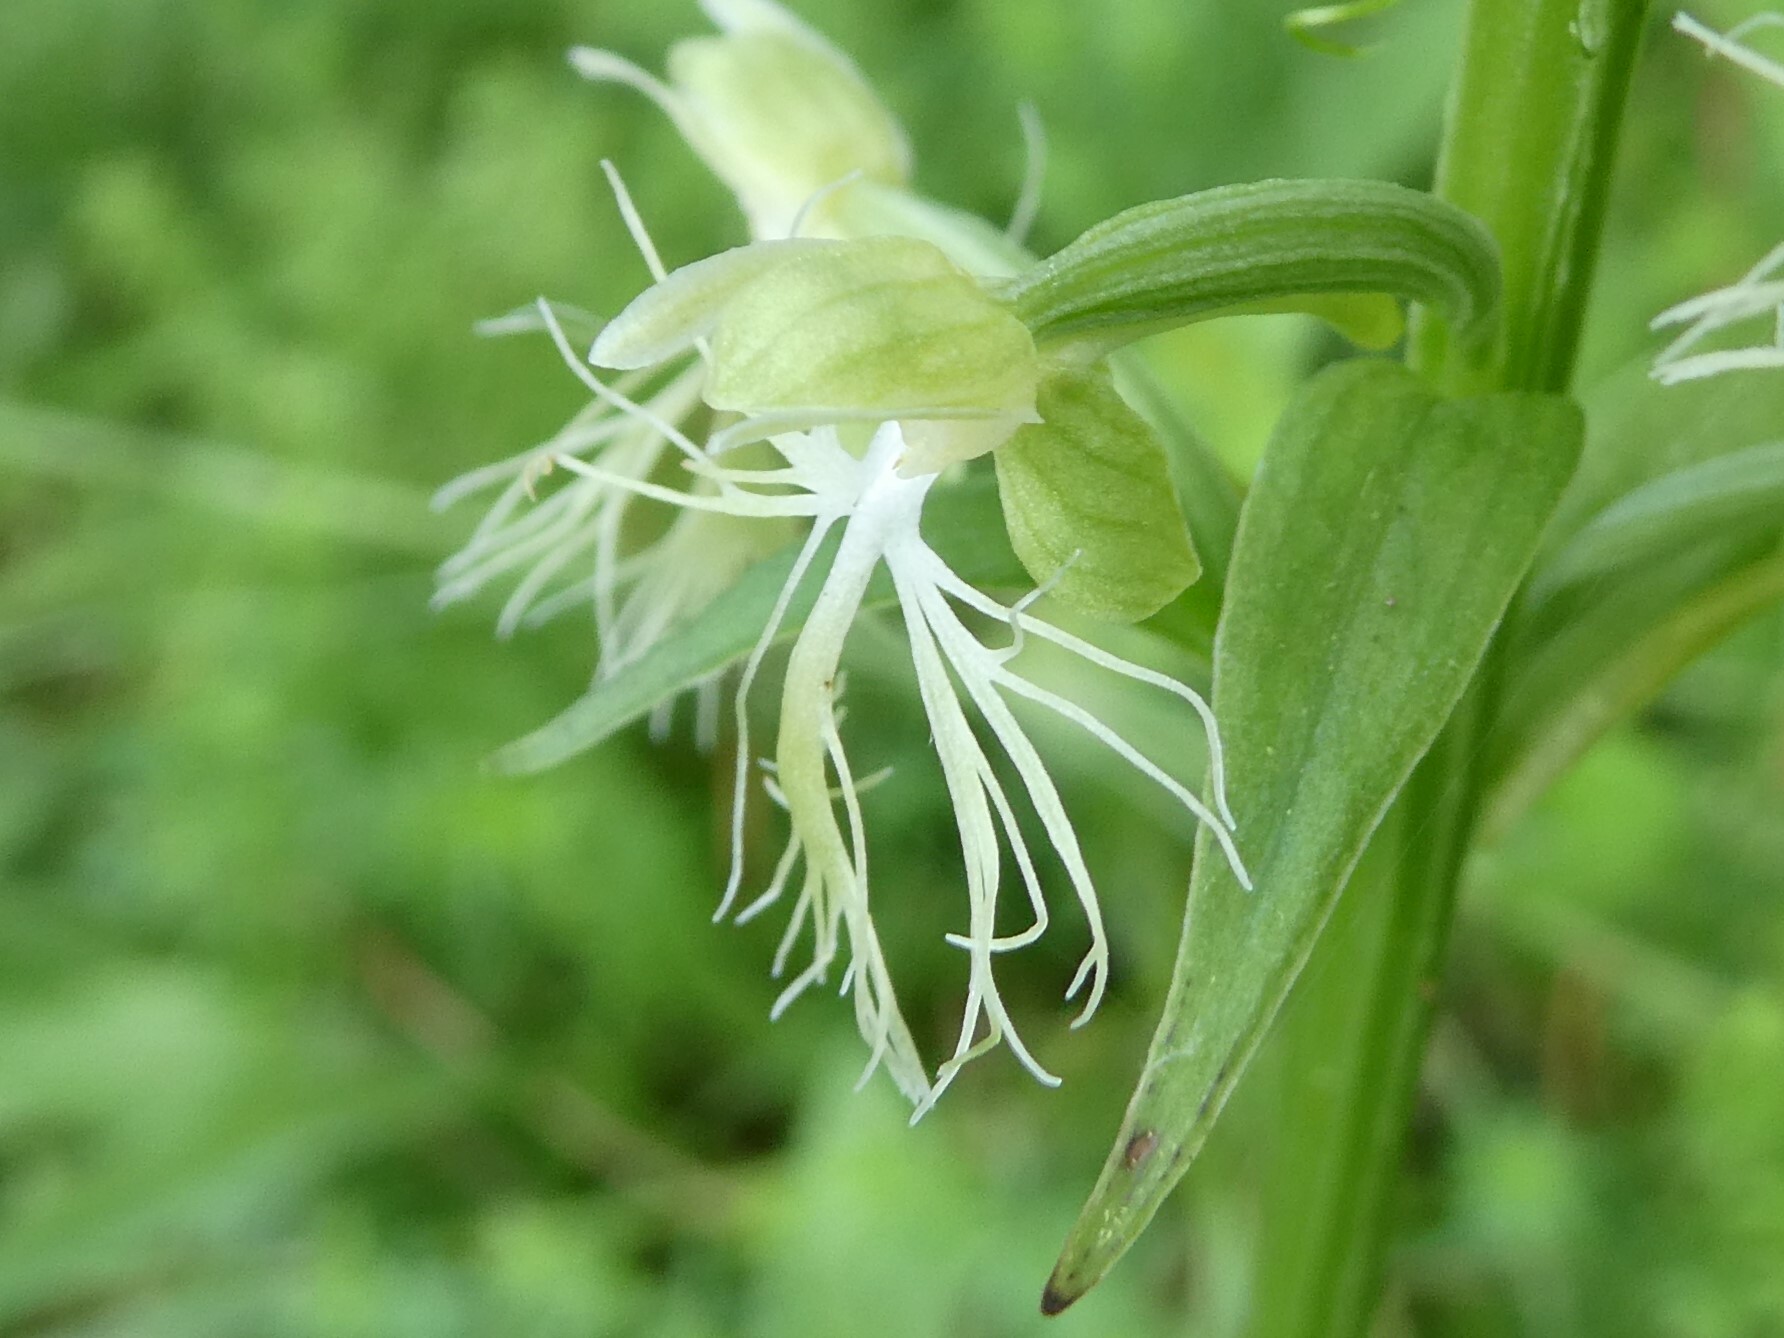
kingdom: Plantae
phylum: Tracheophyta
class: Liliopsida
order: Asparagales
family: Orchidaceae
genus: Platanthera
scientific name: Platanthera lacera
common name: Green fringed orchid
